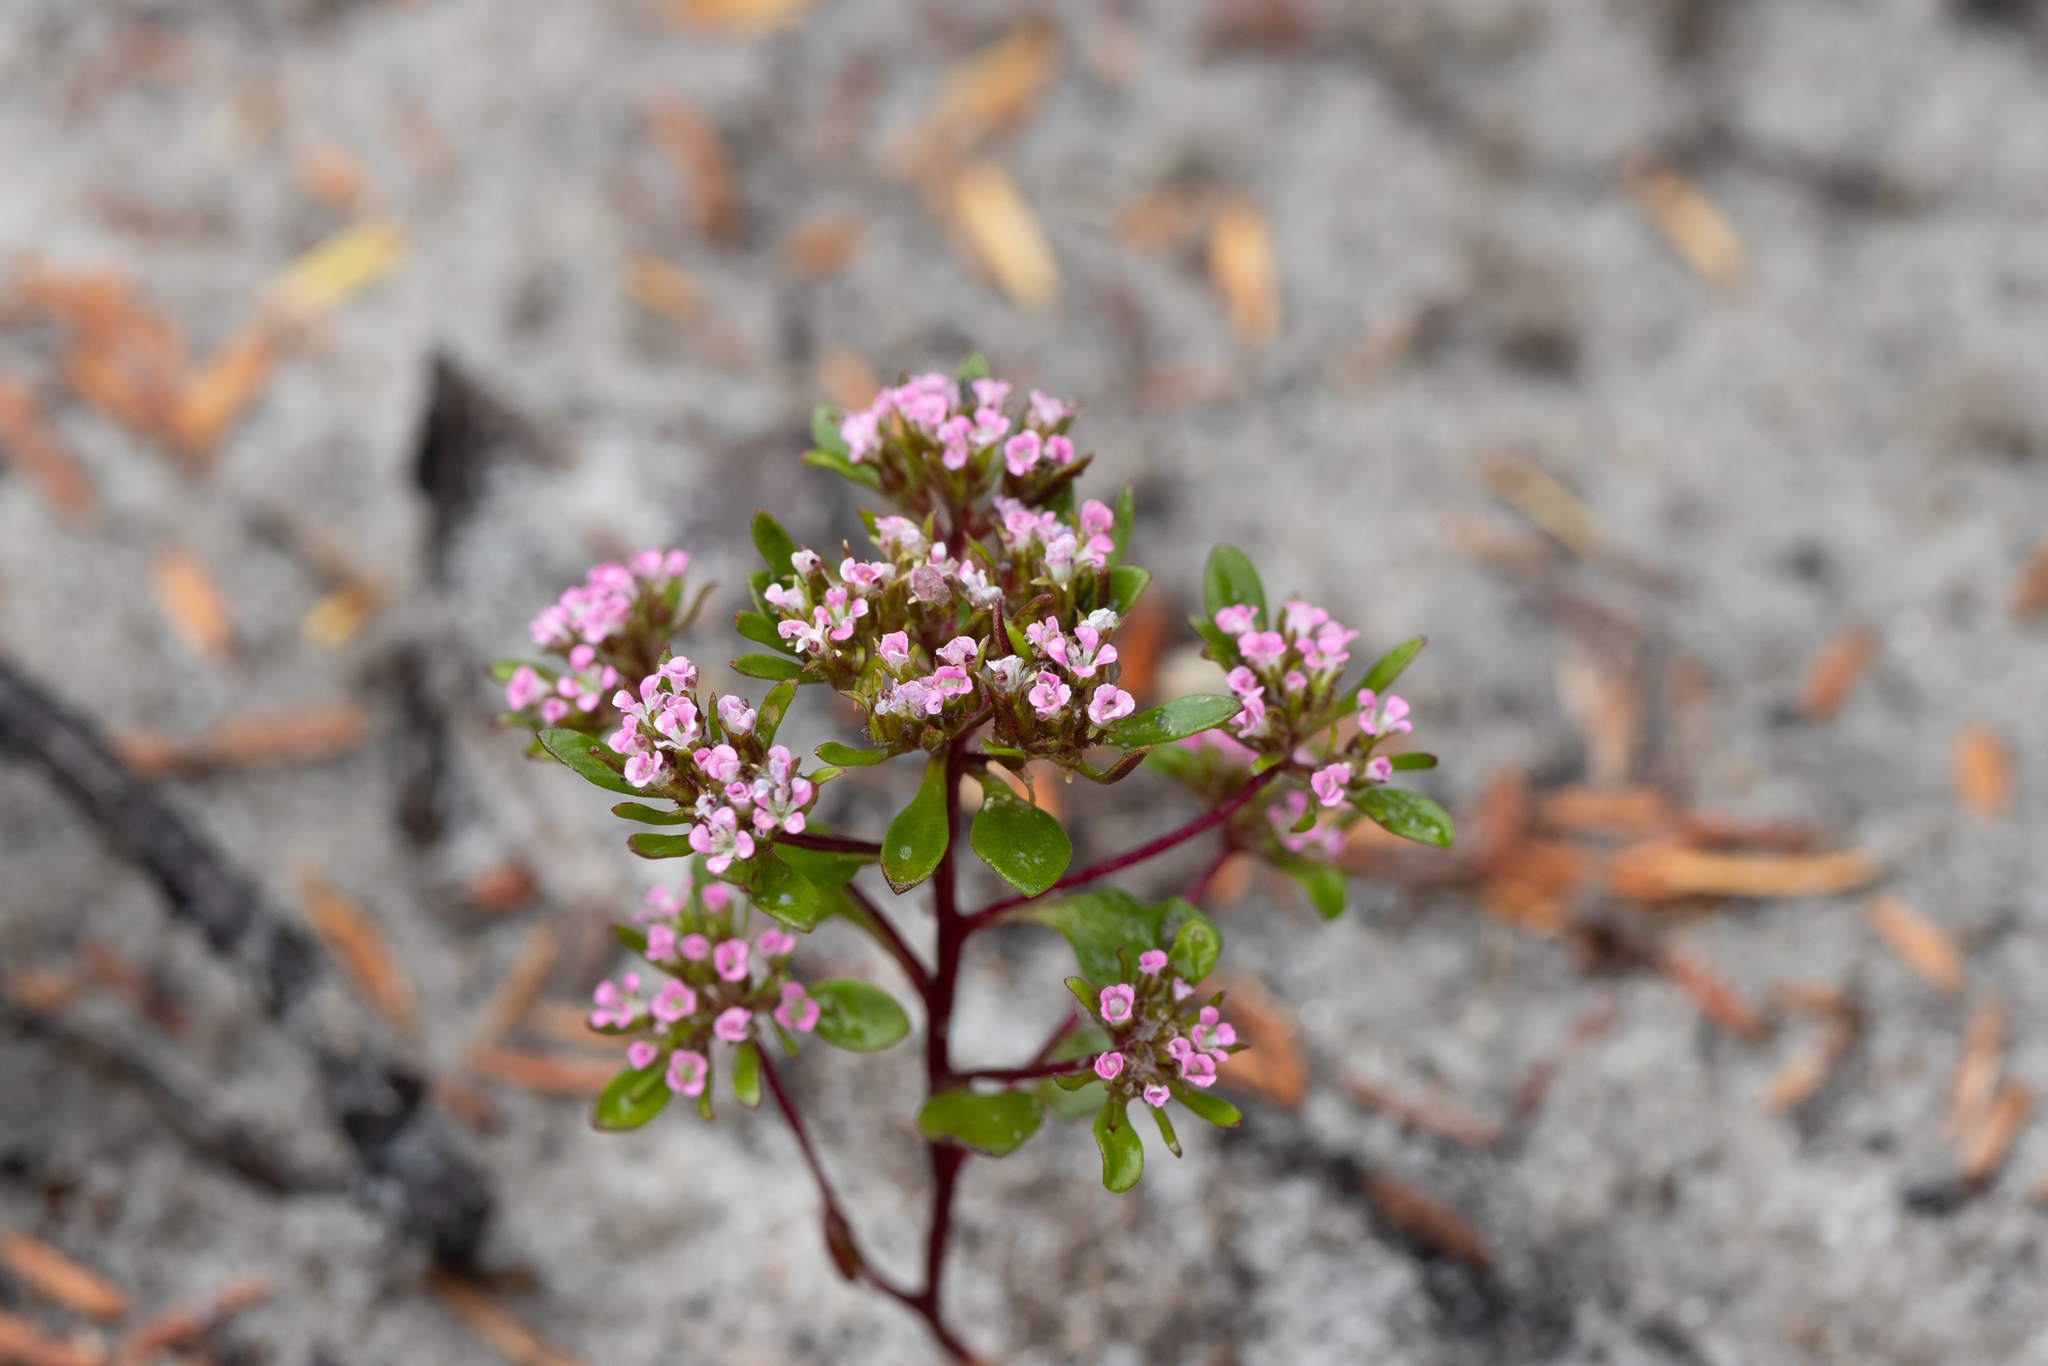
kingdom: Plantae
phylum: Tracheophyta
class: Magnoliopsida
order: Asterales
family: Stylidiaceae
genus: Levenhookia
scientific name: Levenhookia pusilla
